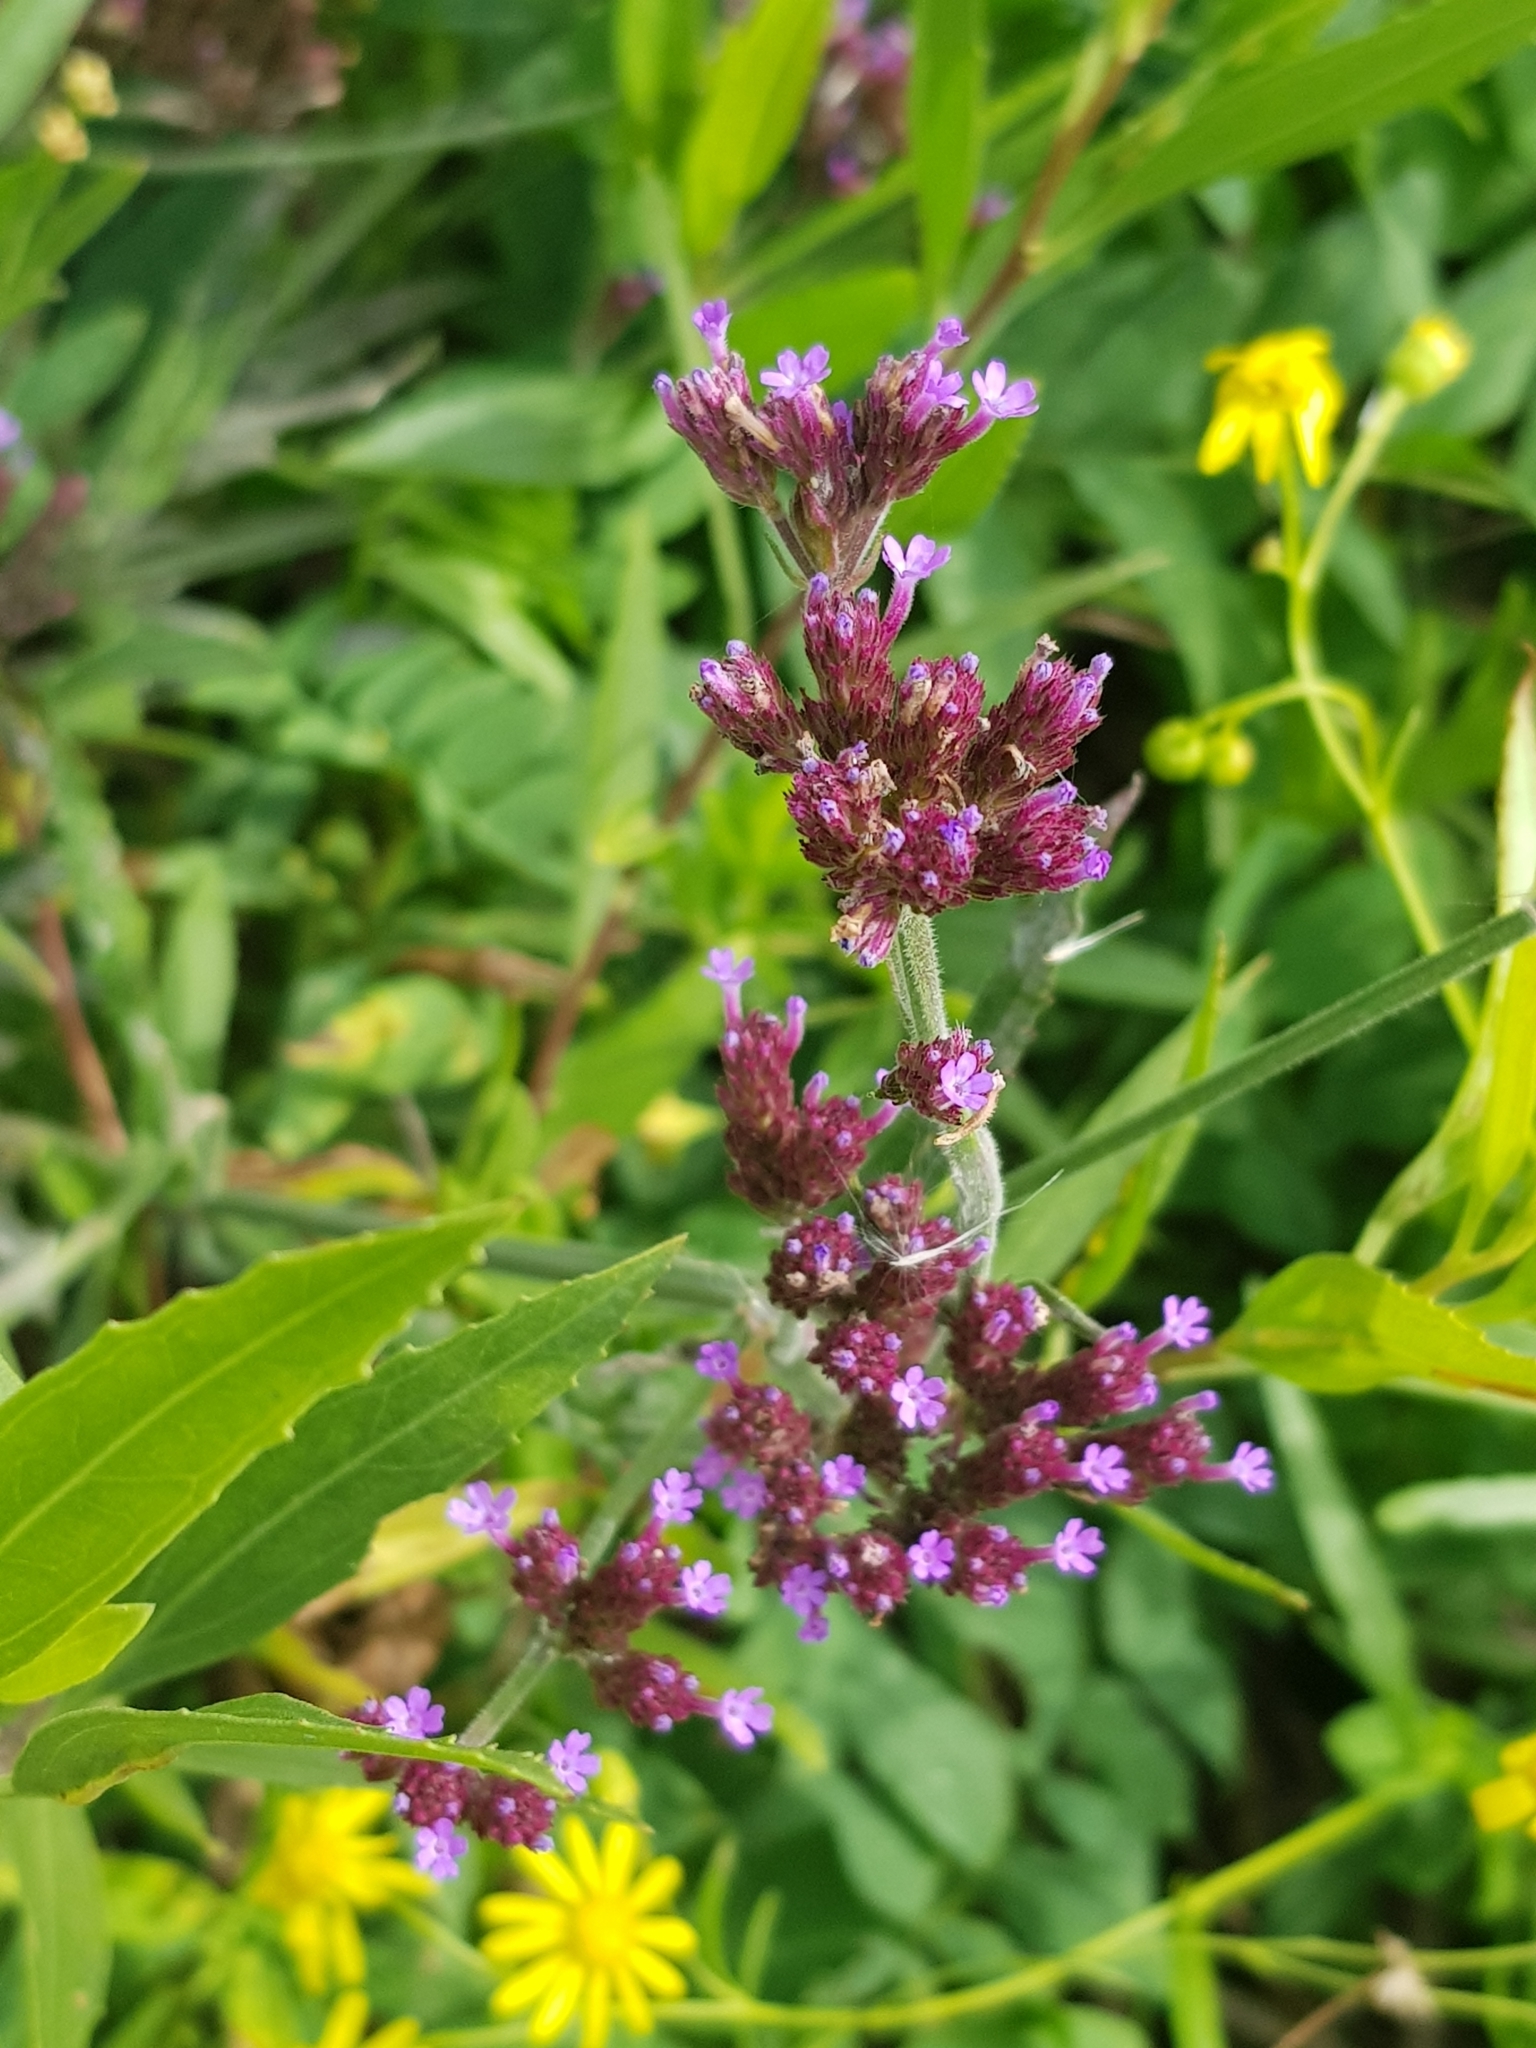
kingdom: Plantae
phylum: Tracheophyta
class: Magnoliopsida
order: Lamiales
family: Verbenaceae
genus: Verbena
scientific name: Verbena bonariensis
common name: Purpletop vervain
